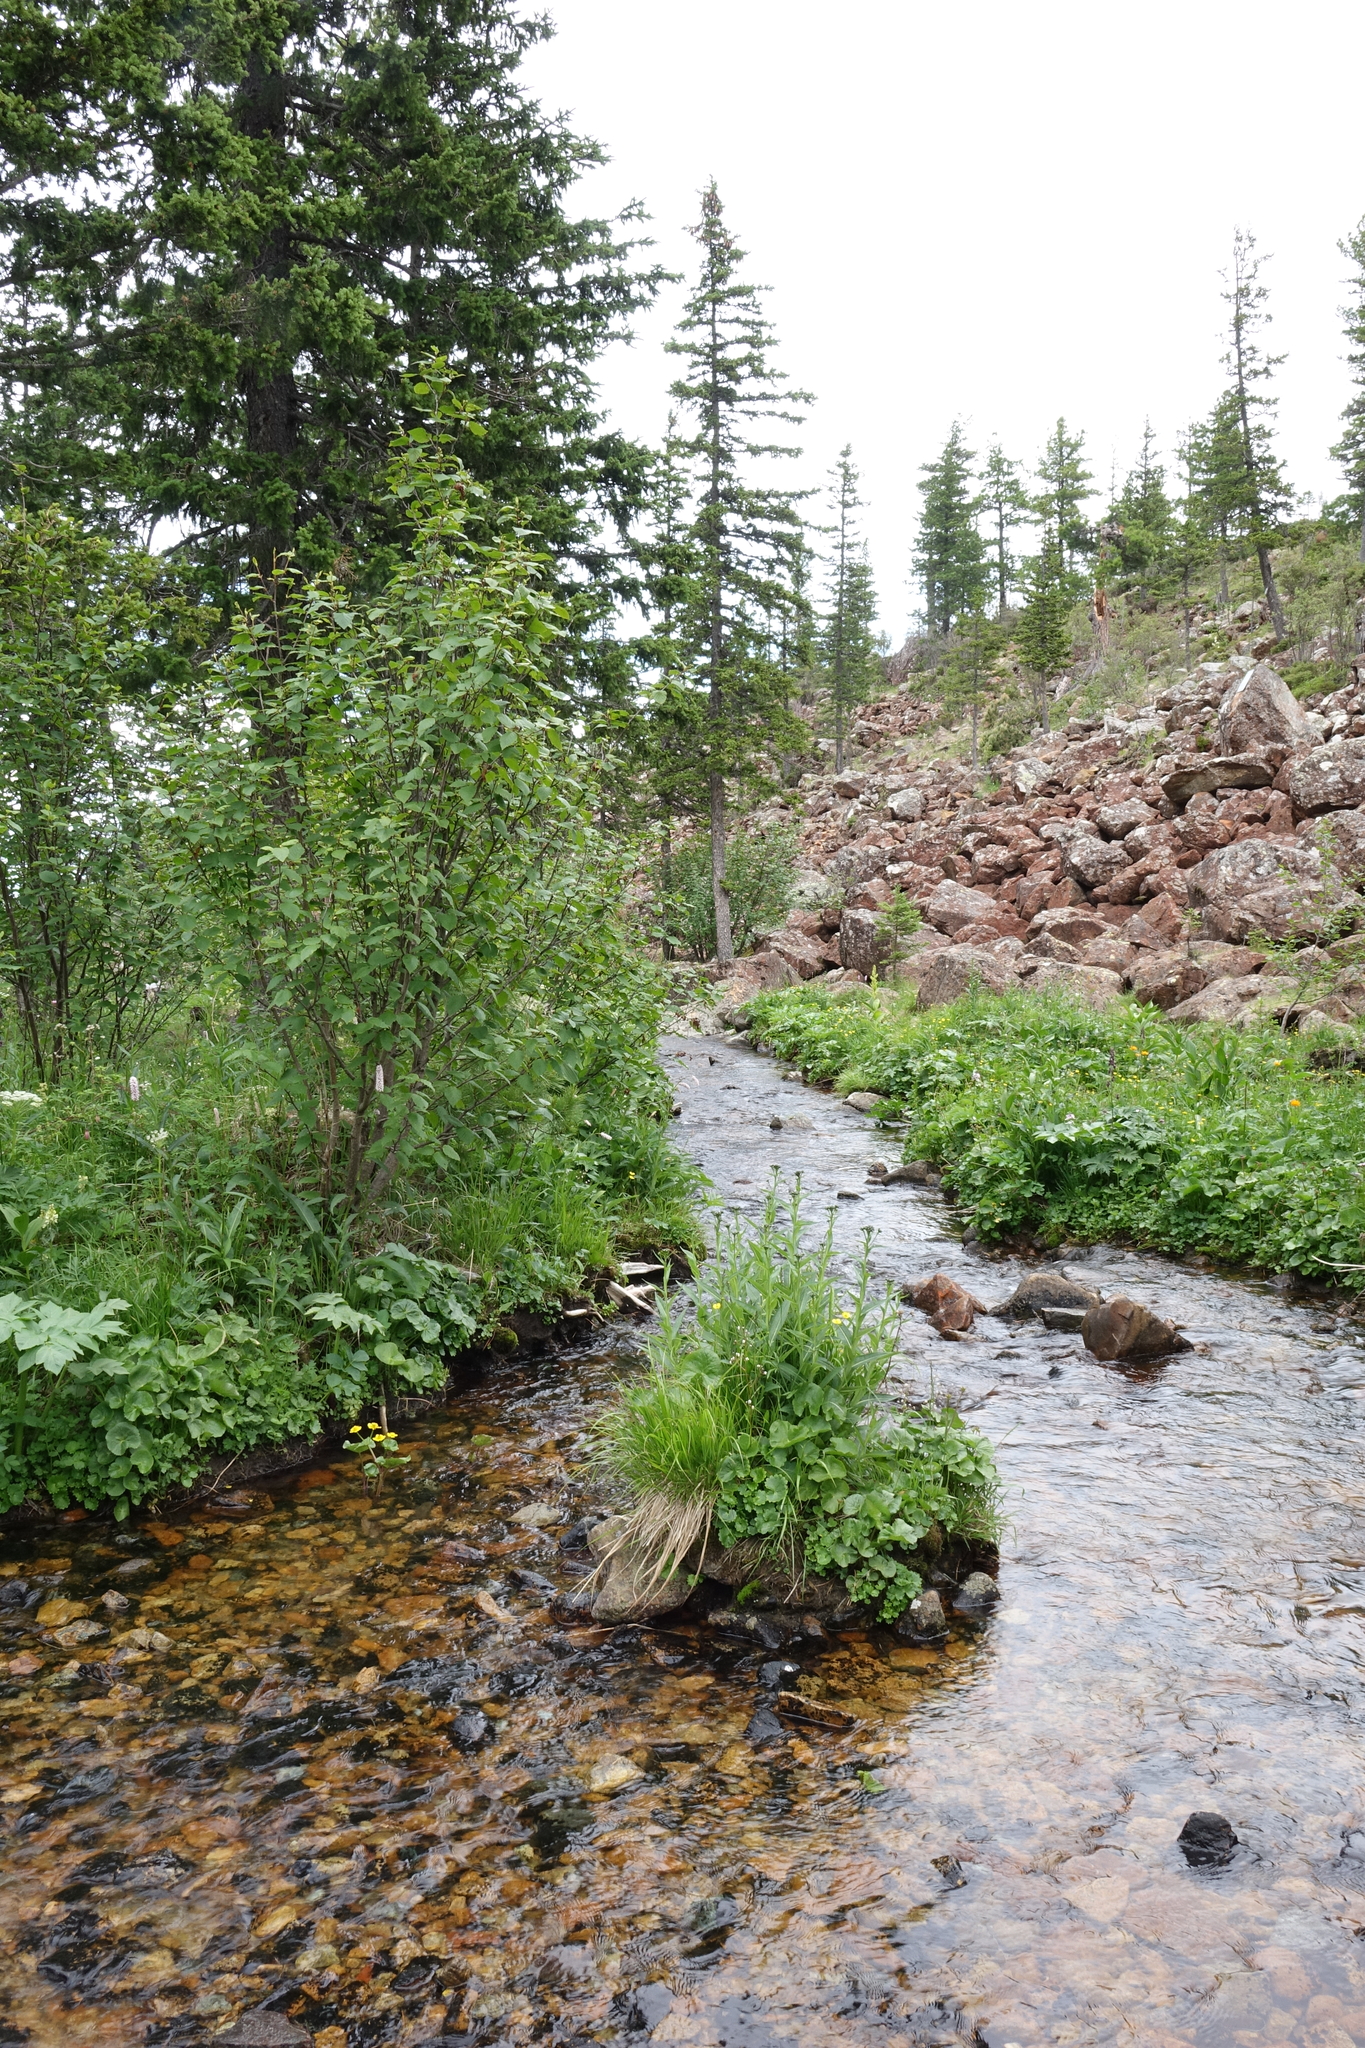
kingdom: Plantae
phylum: Tracheophyta
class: Pinopsida
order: Pinales
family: Pinaceae
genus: Picea
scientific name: Picea obovata
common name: Siberian spruce
